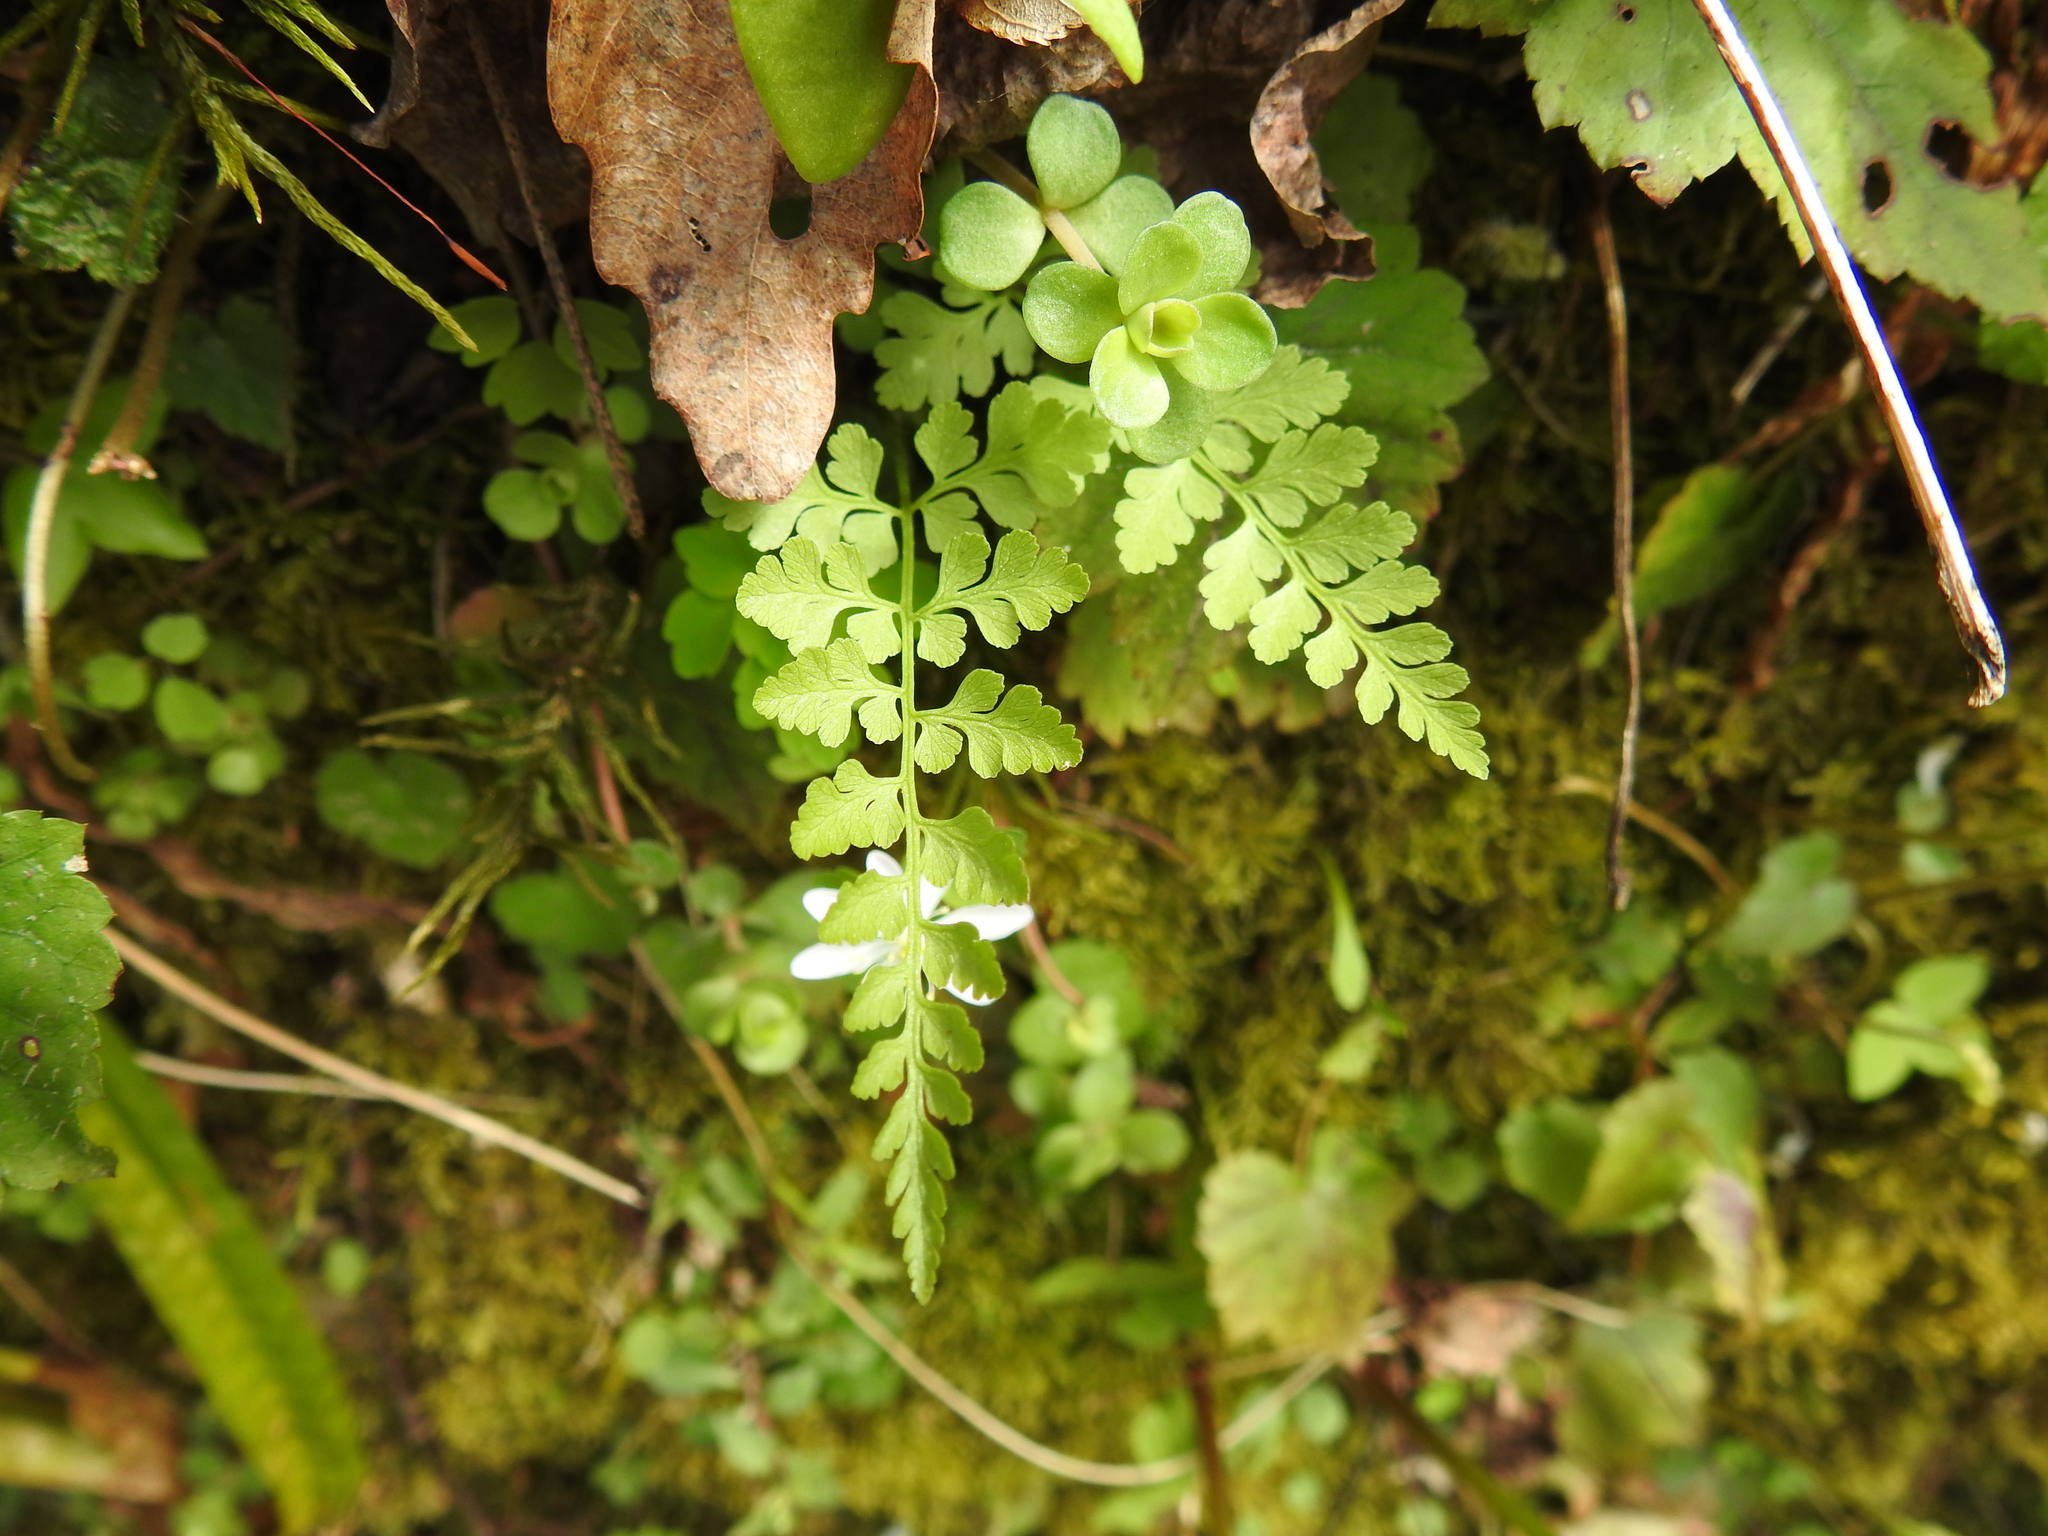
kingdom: Plantae
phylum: Tracheophyta
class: Polypodiopsida
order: Polypodiales
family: Cystopteridaceae
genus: Cystopteris
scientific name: Cystopteris protrusa
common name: Lowland brittle fern
